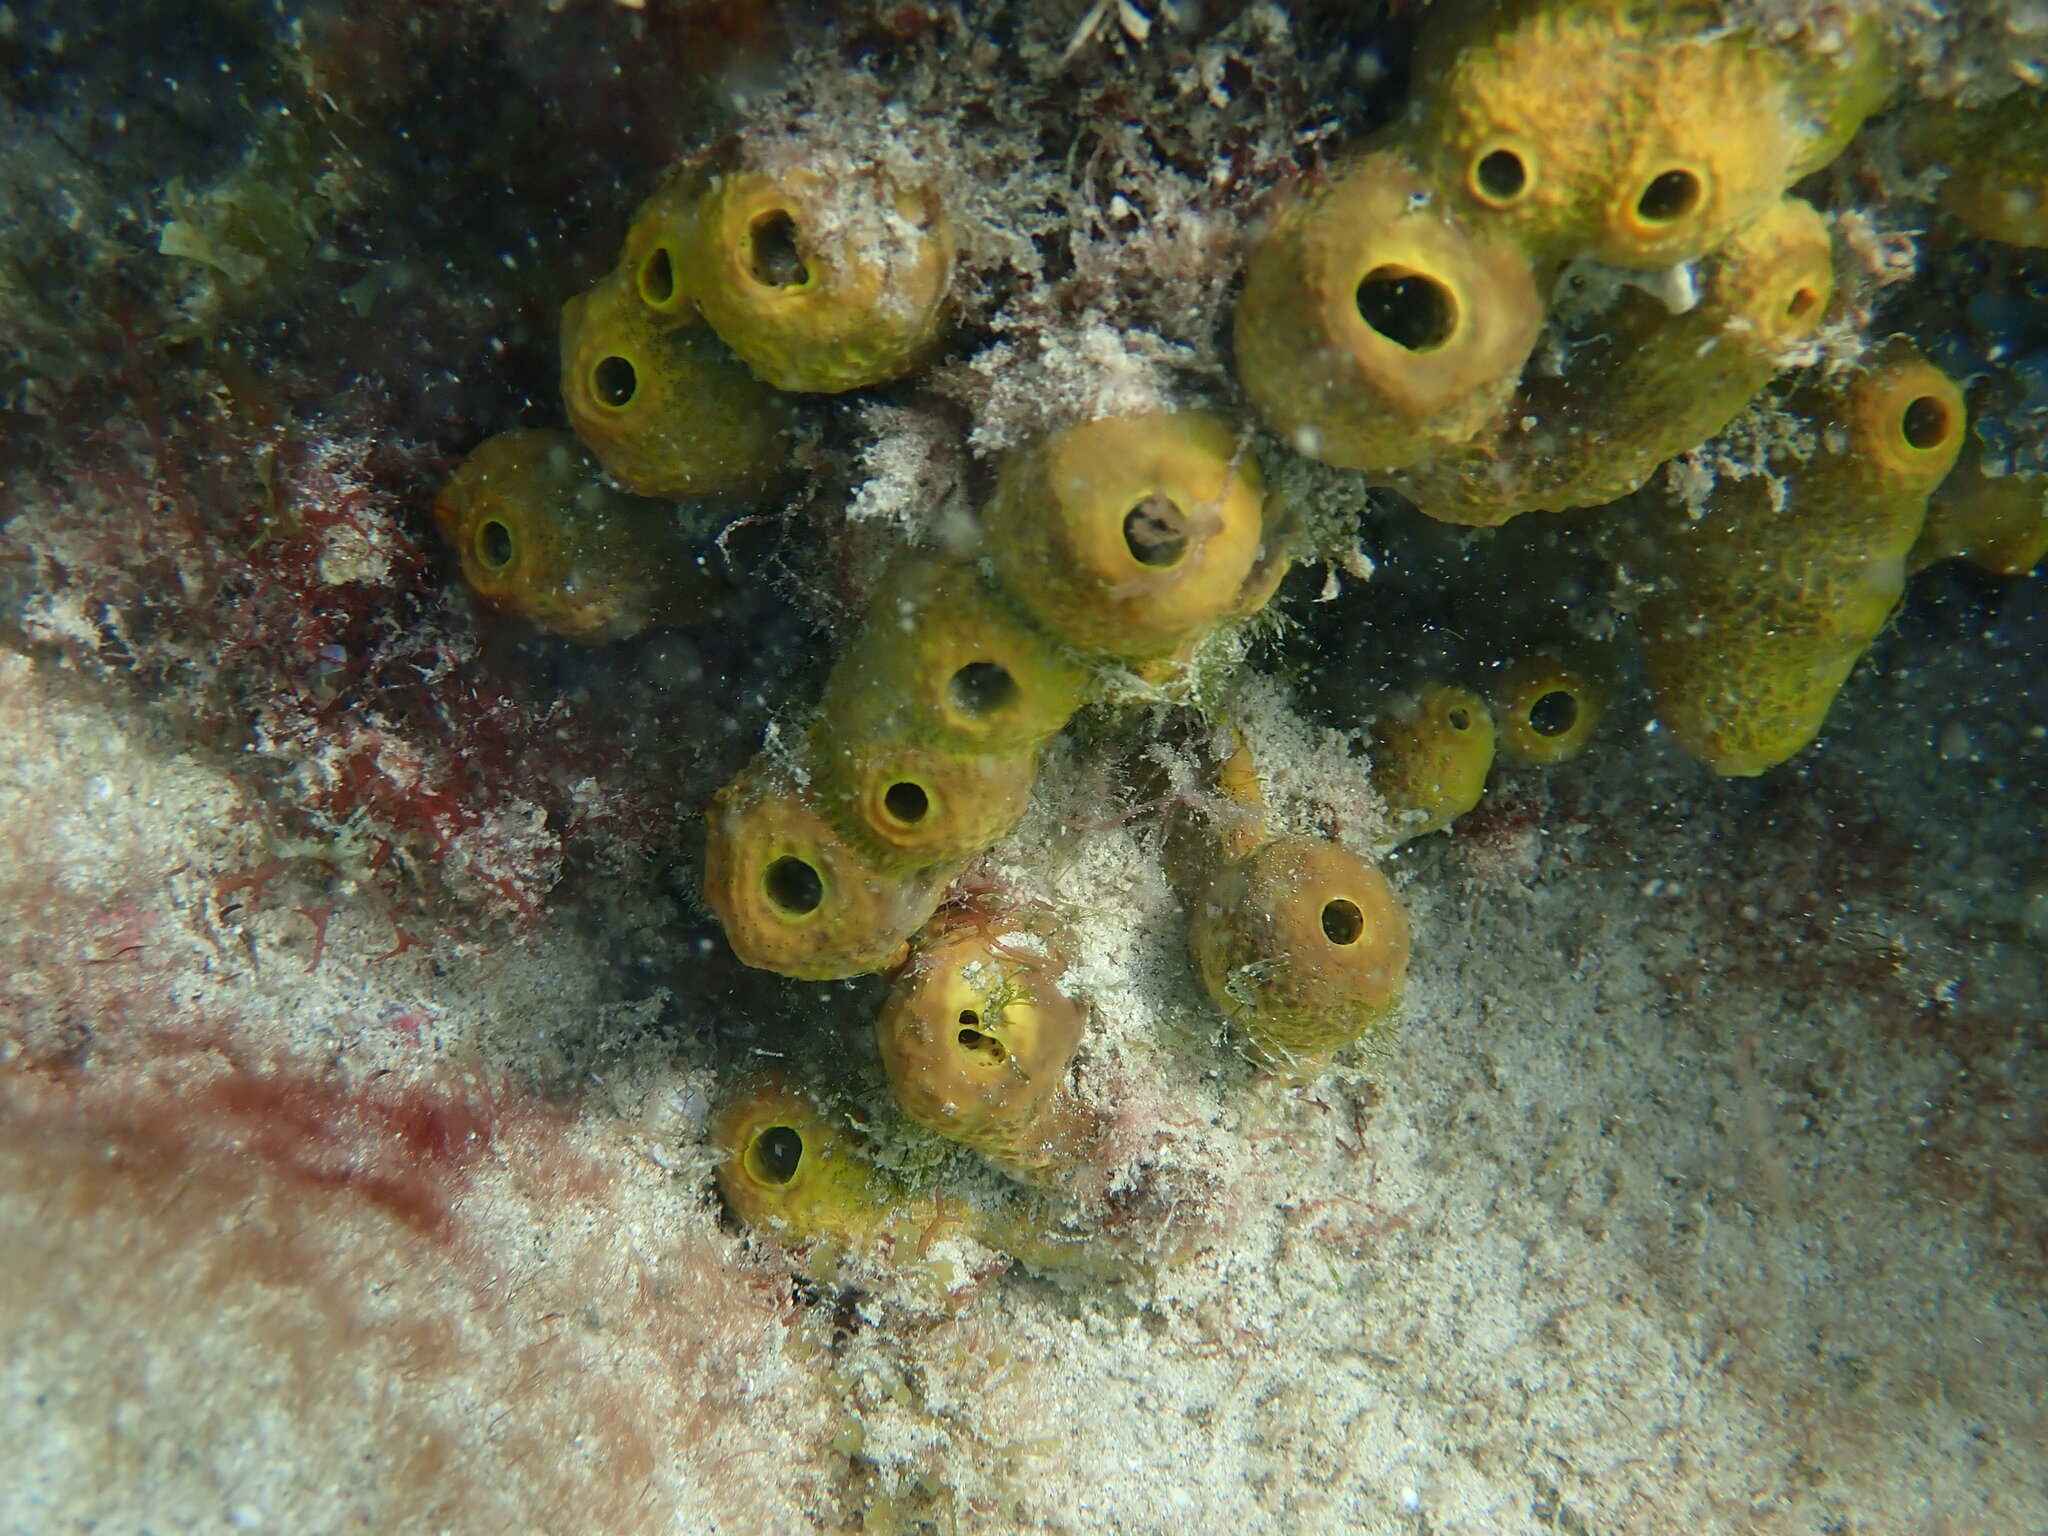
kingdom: Animalia
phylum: Porifera
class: Demospongiae
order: Verongiida
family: Aplysinidae
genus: Aplysina
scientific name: Aplysina aerophoba
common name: Aureate sponge
